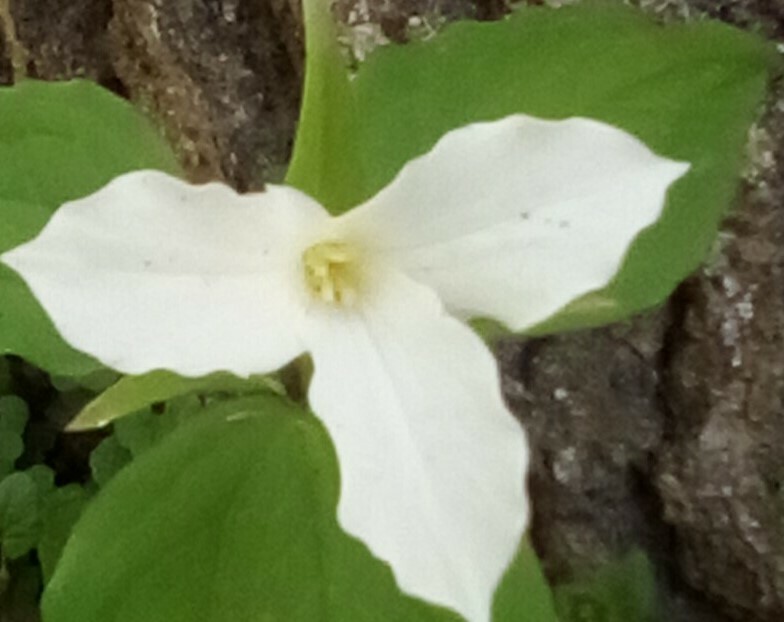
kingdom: Plantae
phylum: Tracheophyta
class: Liliopsida
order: Liliales
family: Melanthiaceae
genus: Trillium
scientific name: Trillium grandiflorum
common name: Great white trillium
